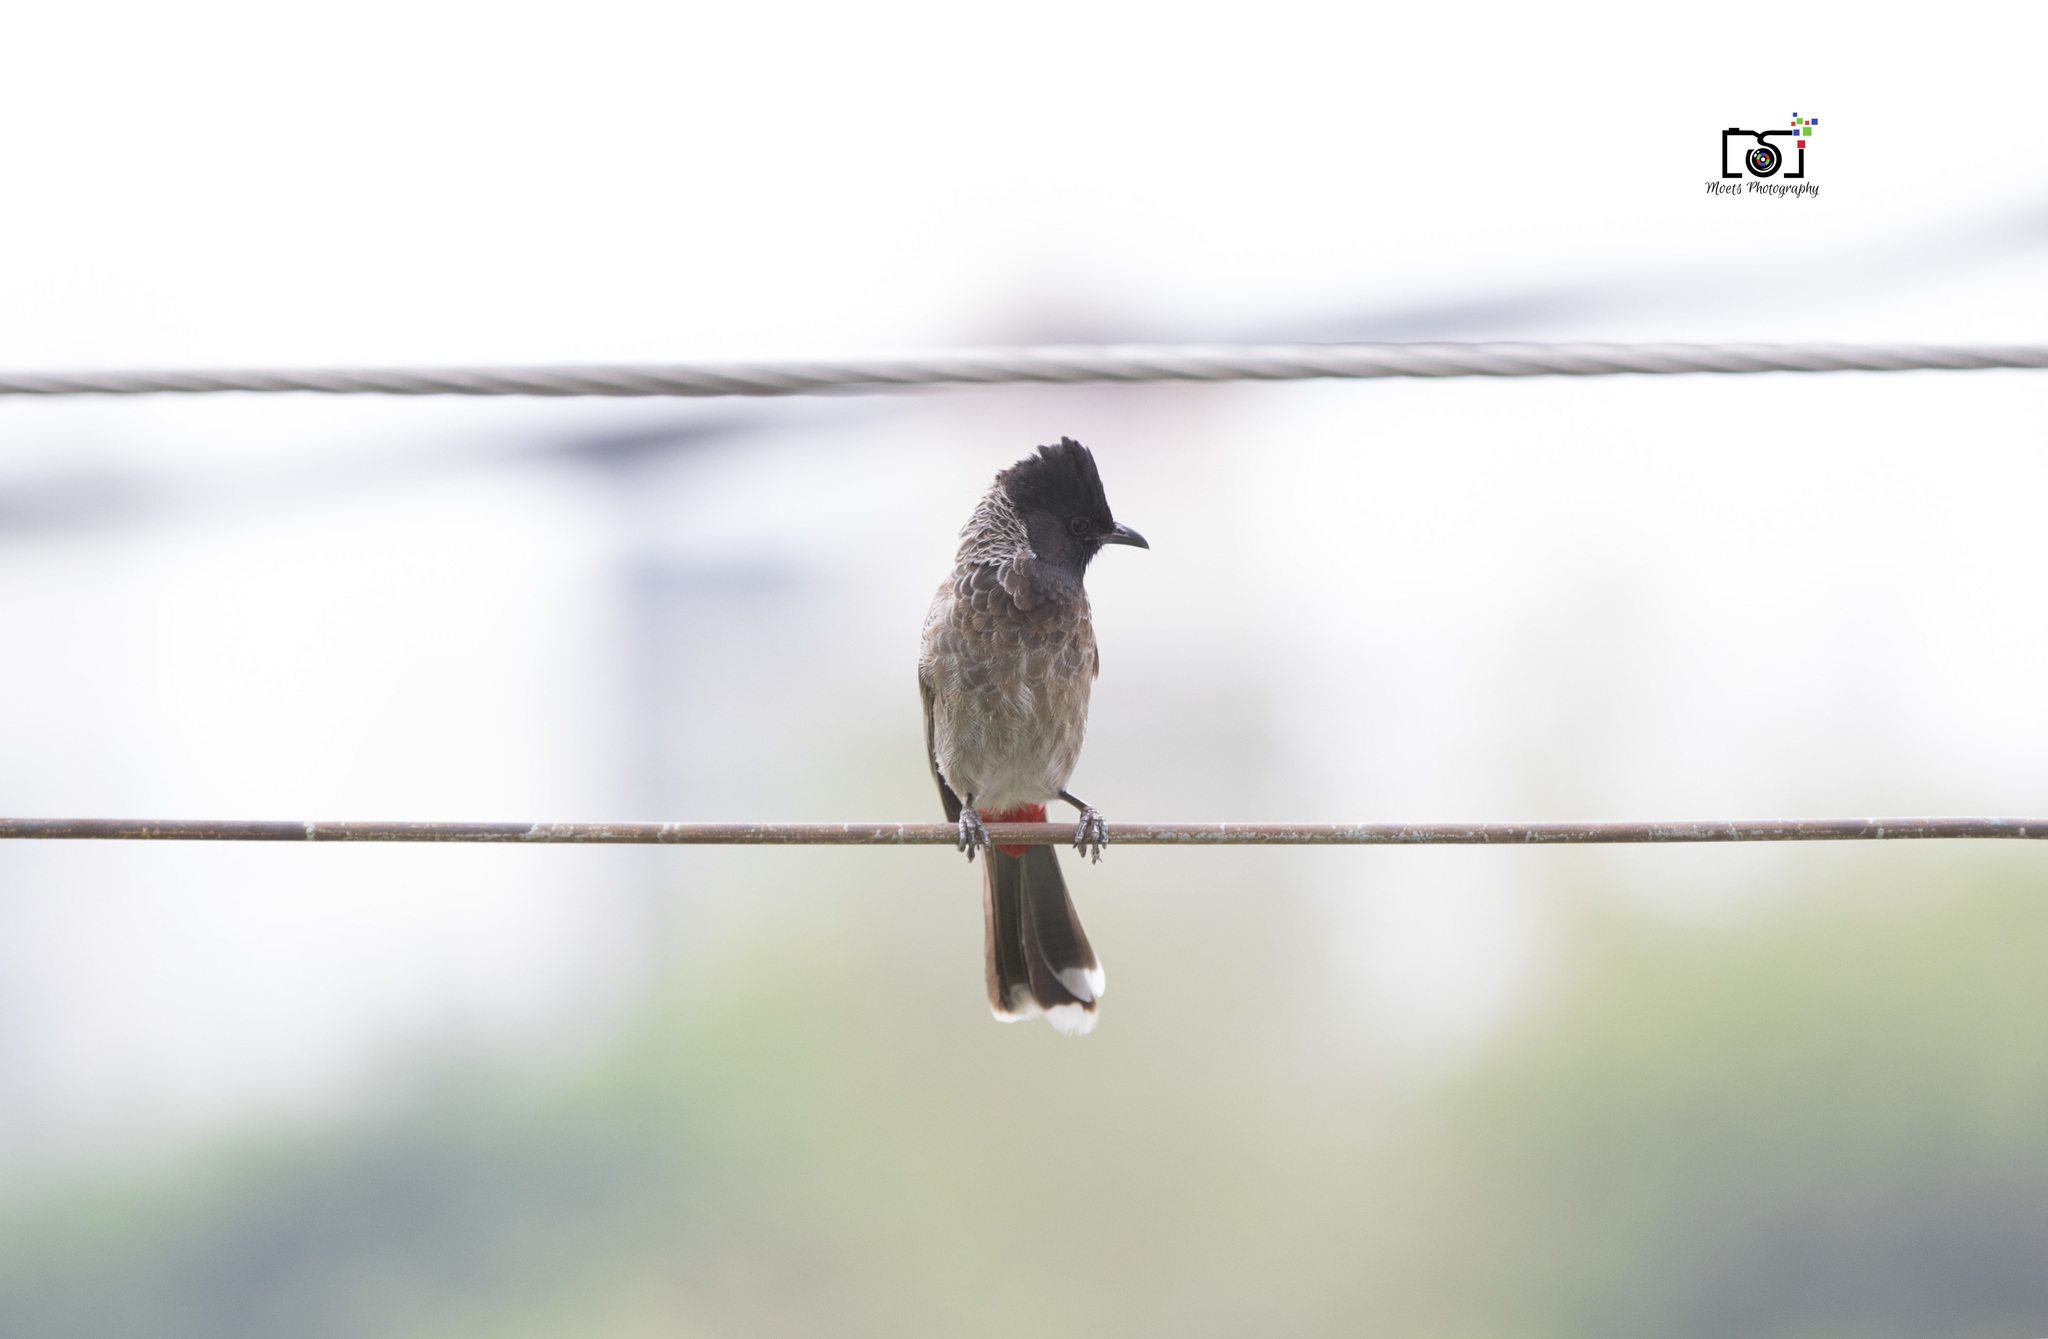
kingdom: Animalia
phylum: Chordata
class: Aves
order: Passeriformes
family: Pycnonotidae
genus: Pycnonotus
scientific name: Pycnonotus cafer
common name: Red-vented bulbul
